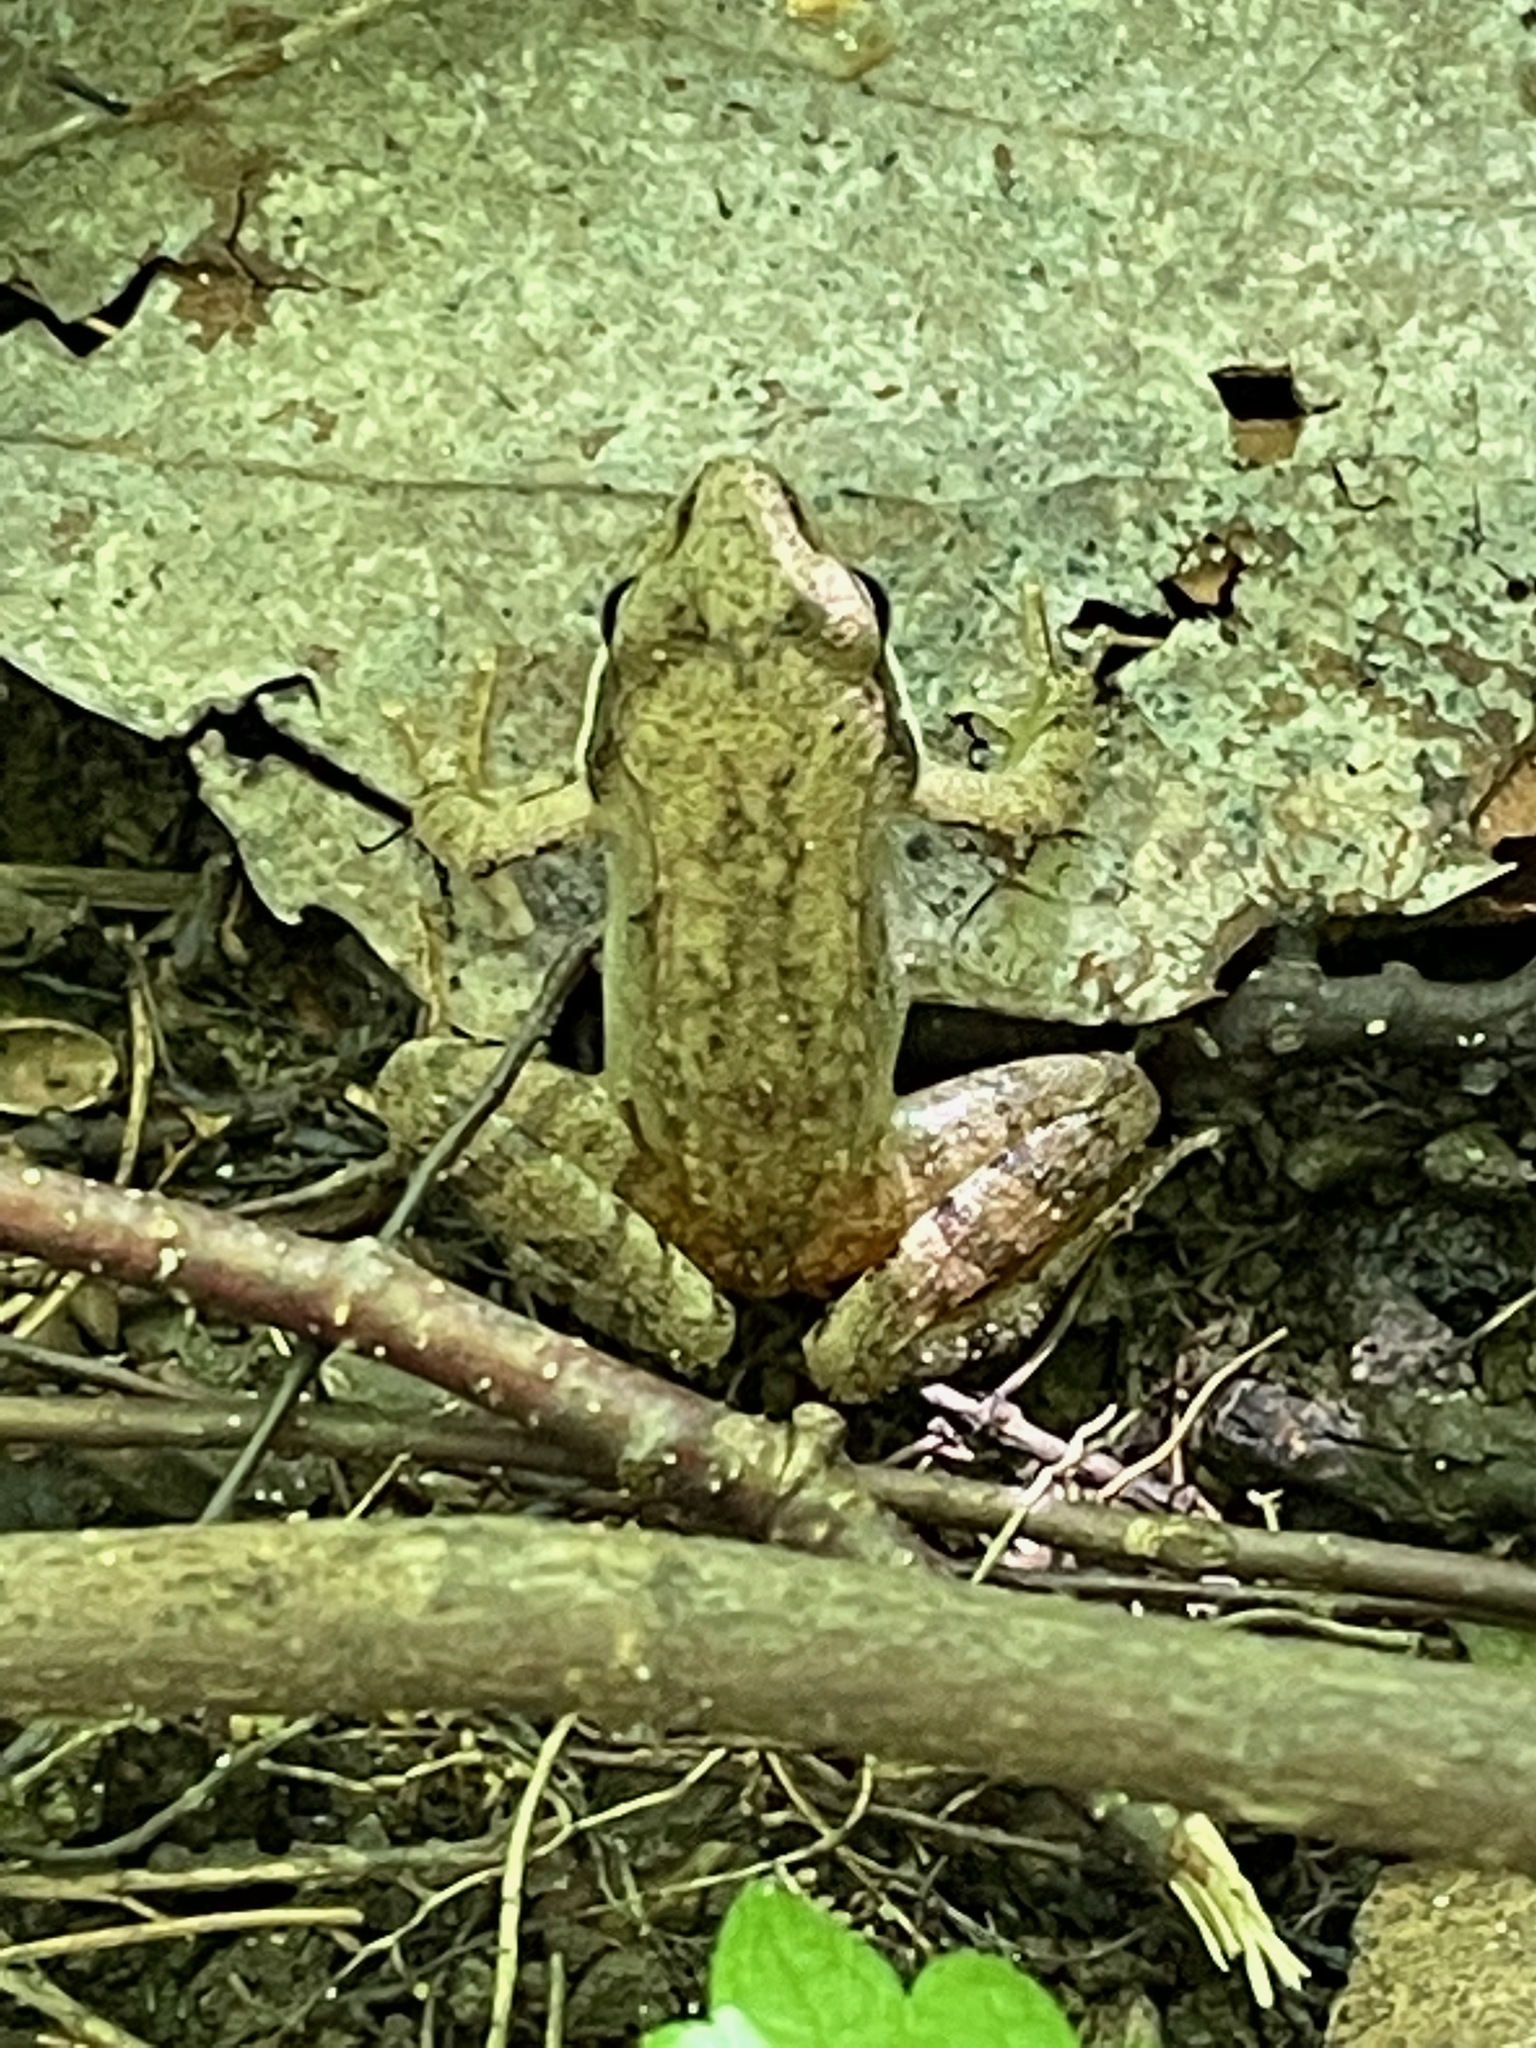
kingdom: Animalia
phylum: Chordata
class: Amphibia
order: Anura
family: Ranidae
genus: Lithobates
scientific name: Lithobates sylvaticus
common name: Wood frog
